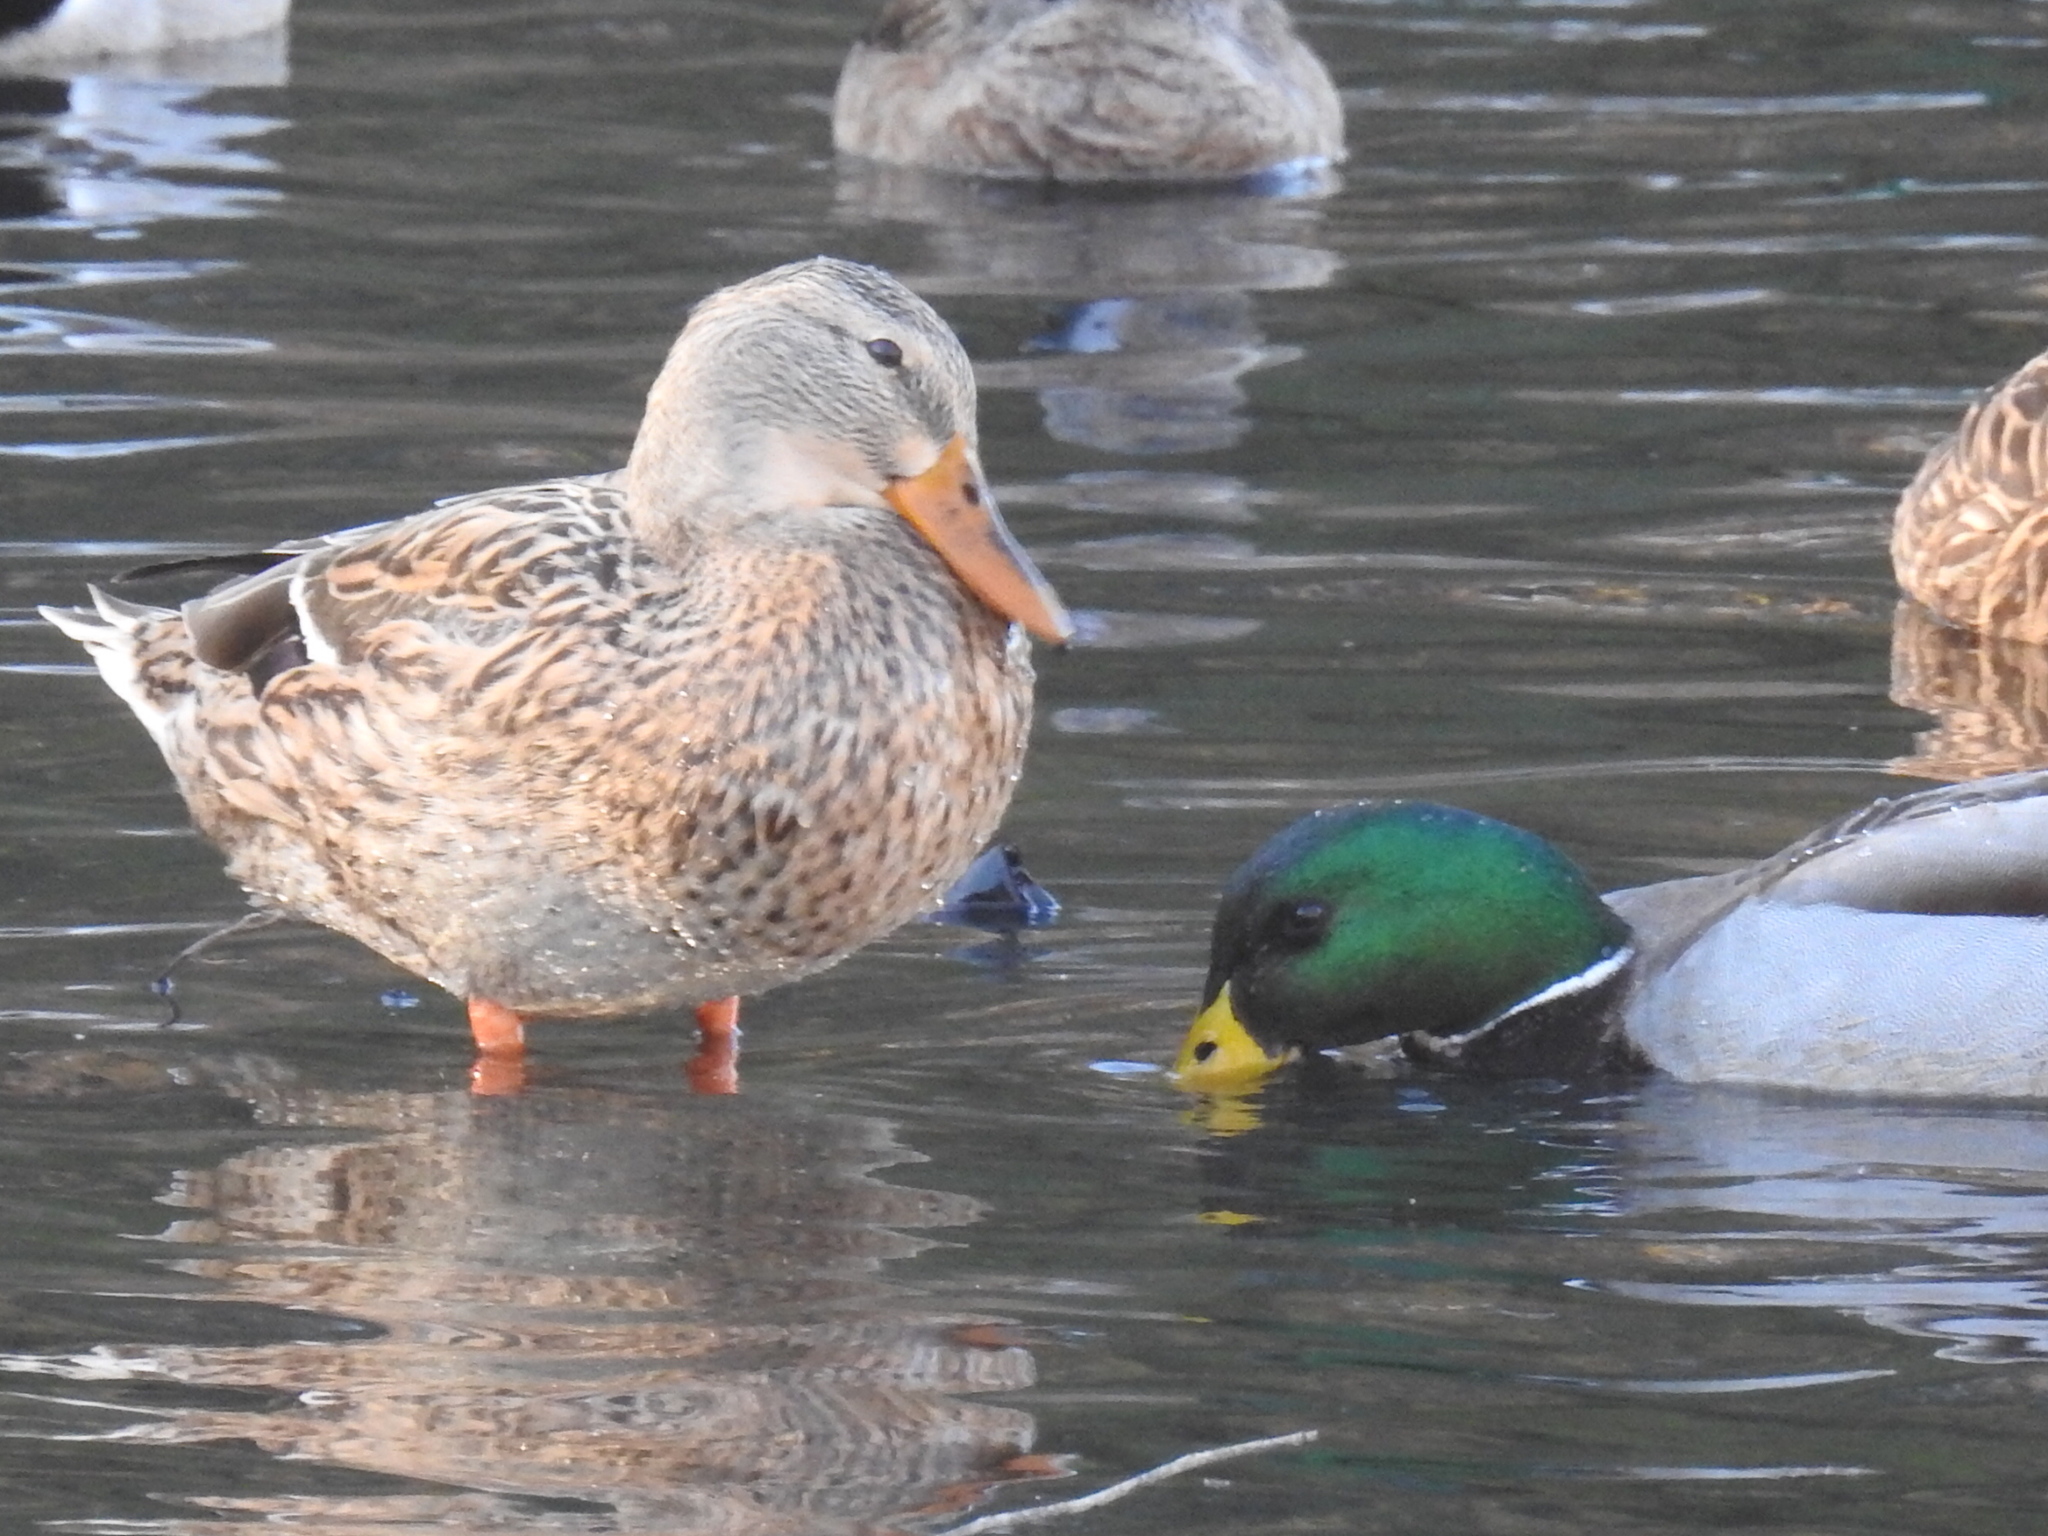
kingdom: Animalia
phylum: Chordata
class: Aves
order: Anseriformes
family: Anatidae
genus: Anas
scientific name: Anas platyrhynchos
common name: Mallard
